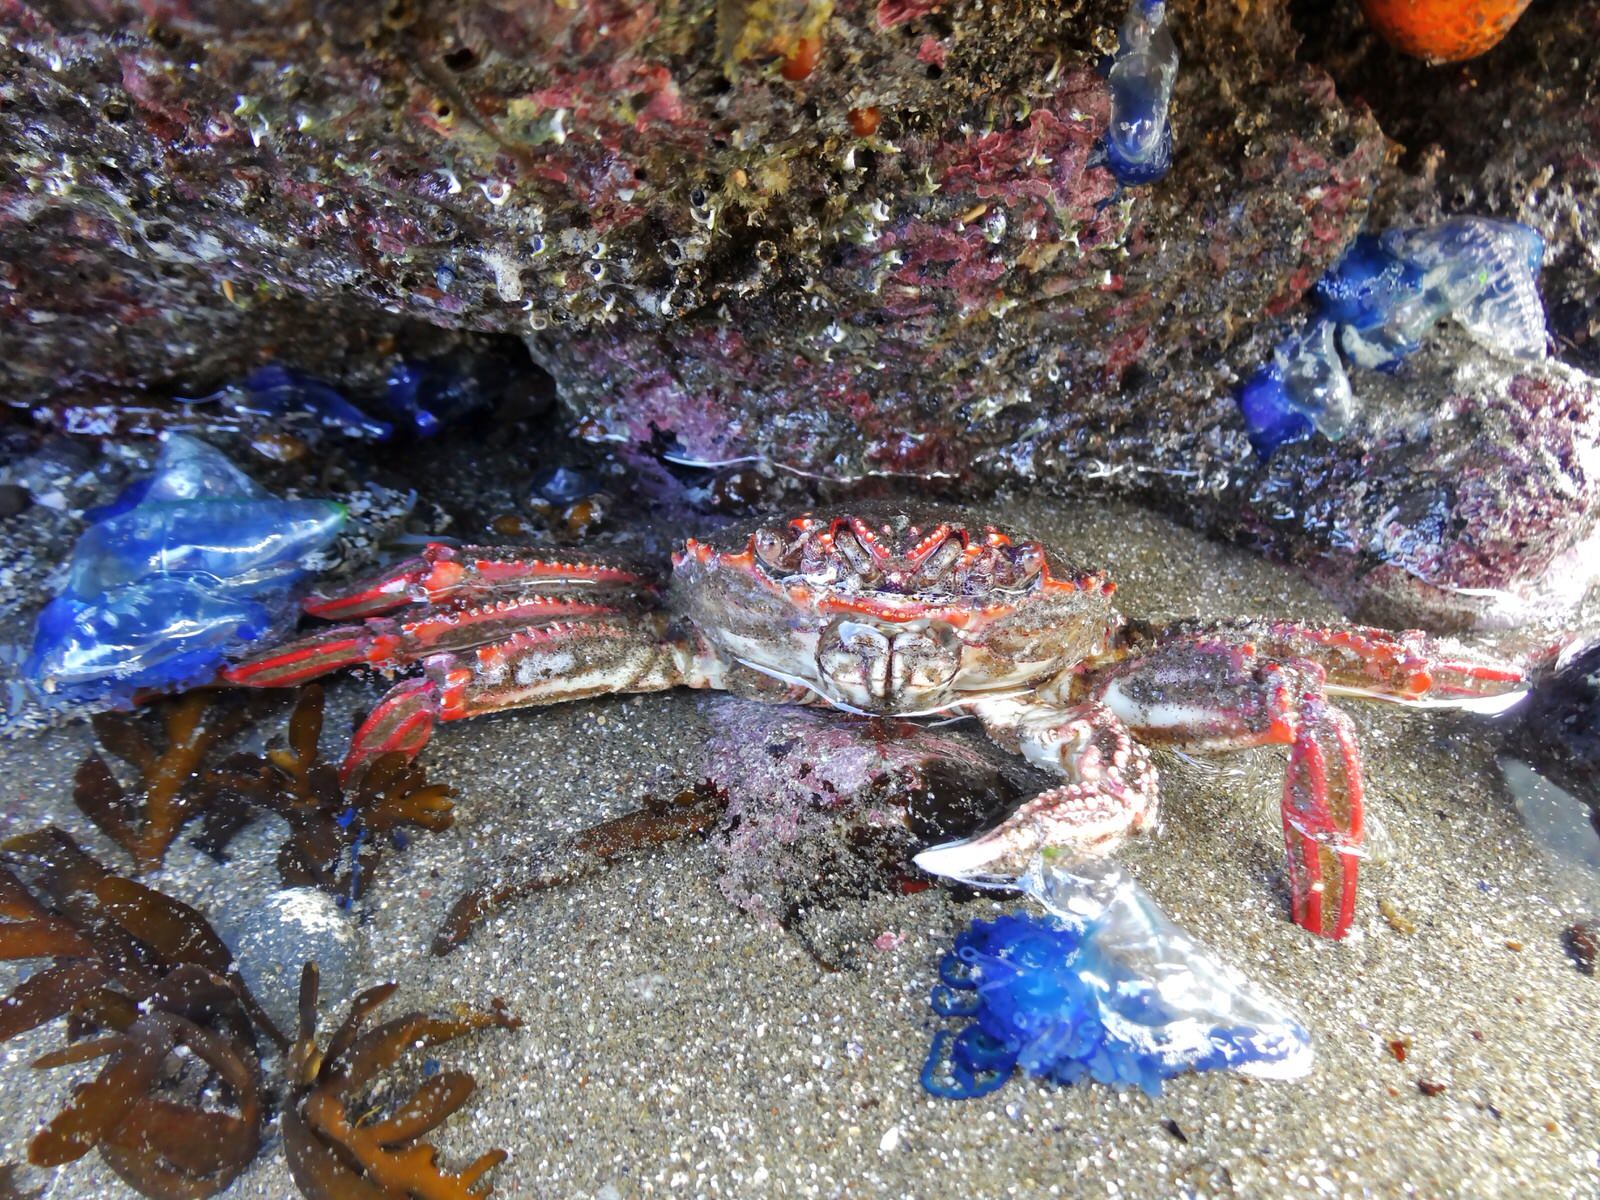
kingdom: Animalia
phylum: Arthropoda
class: Malacostraca
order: Decapoda
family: Plagusiidae
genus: Guinusia
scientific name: Guinusia chabrus
